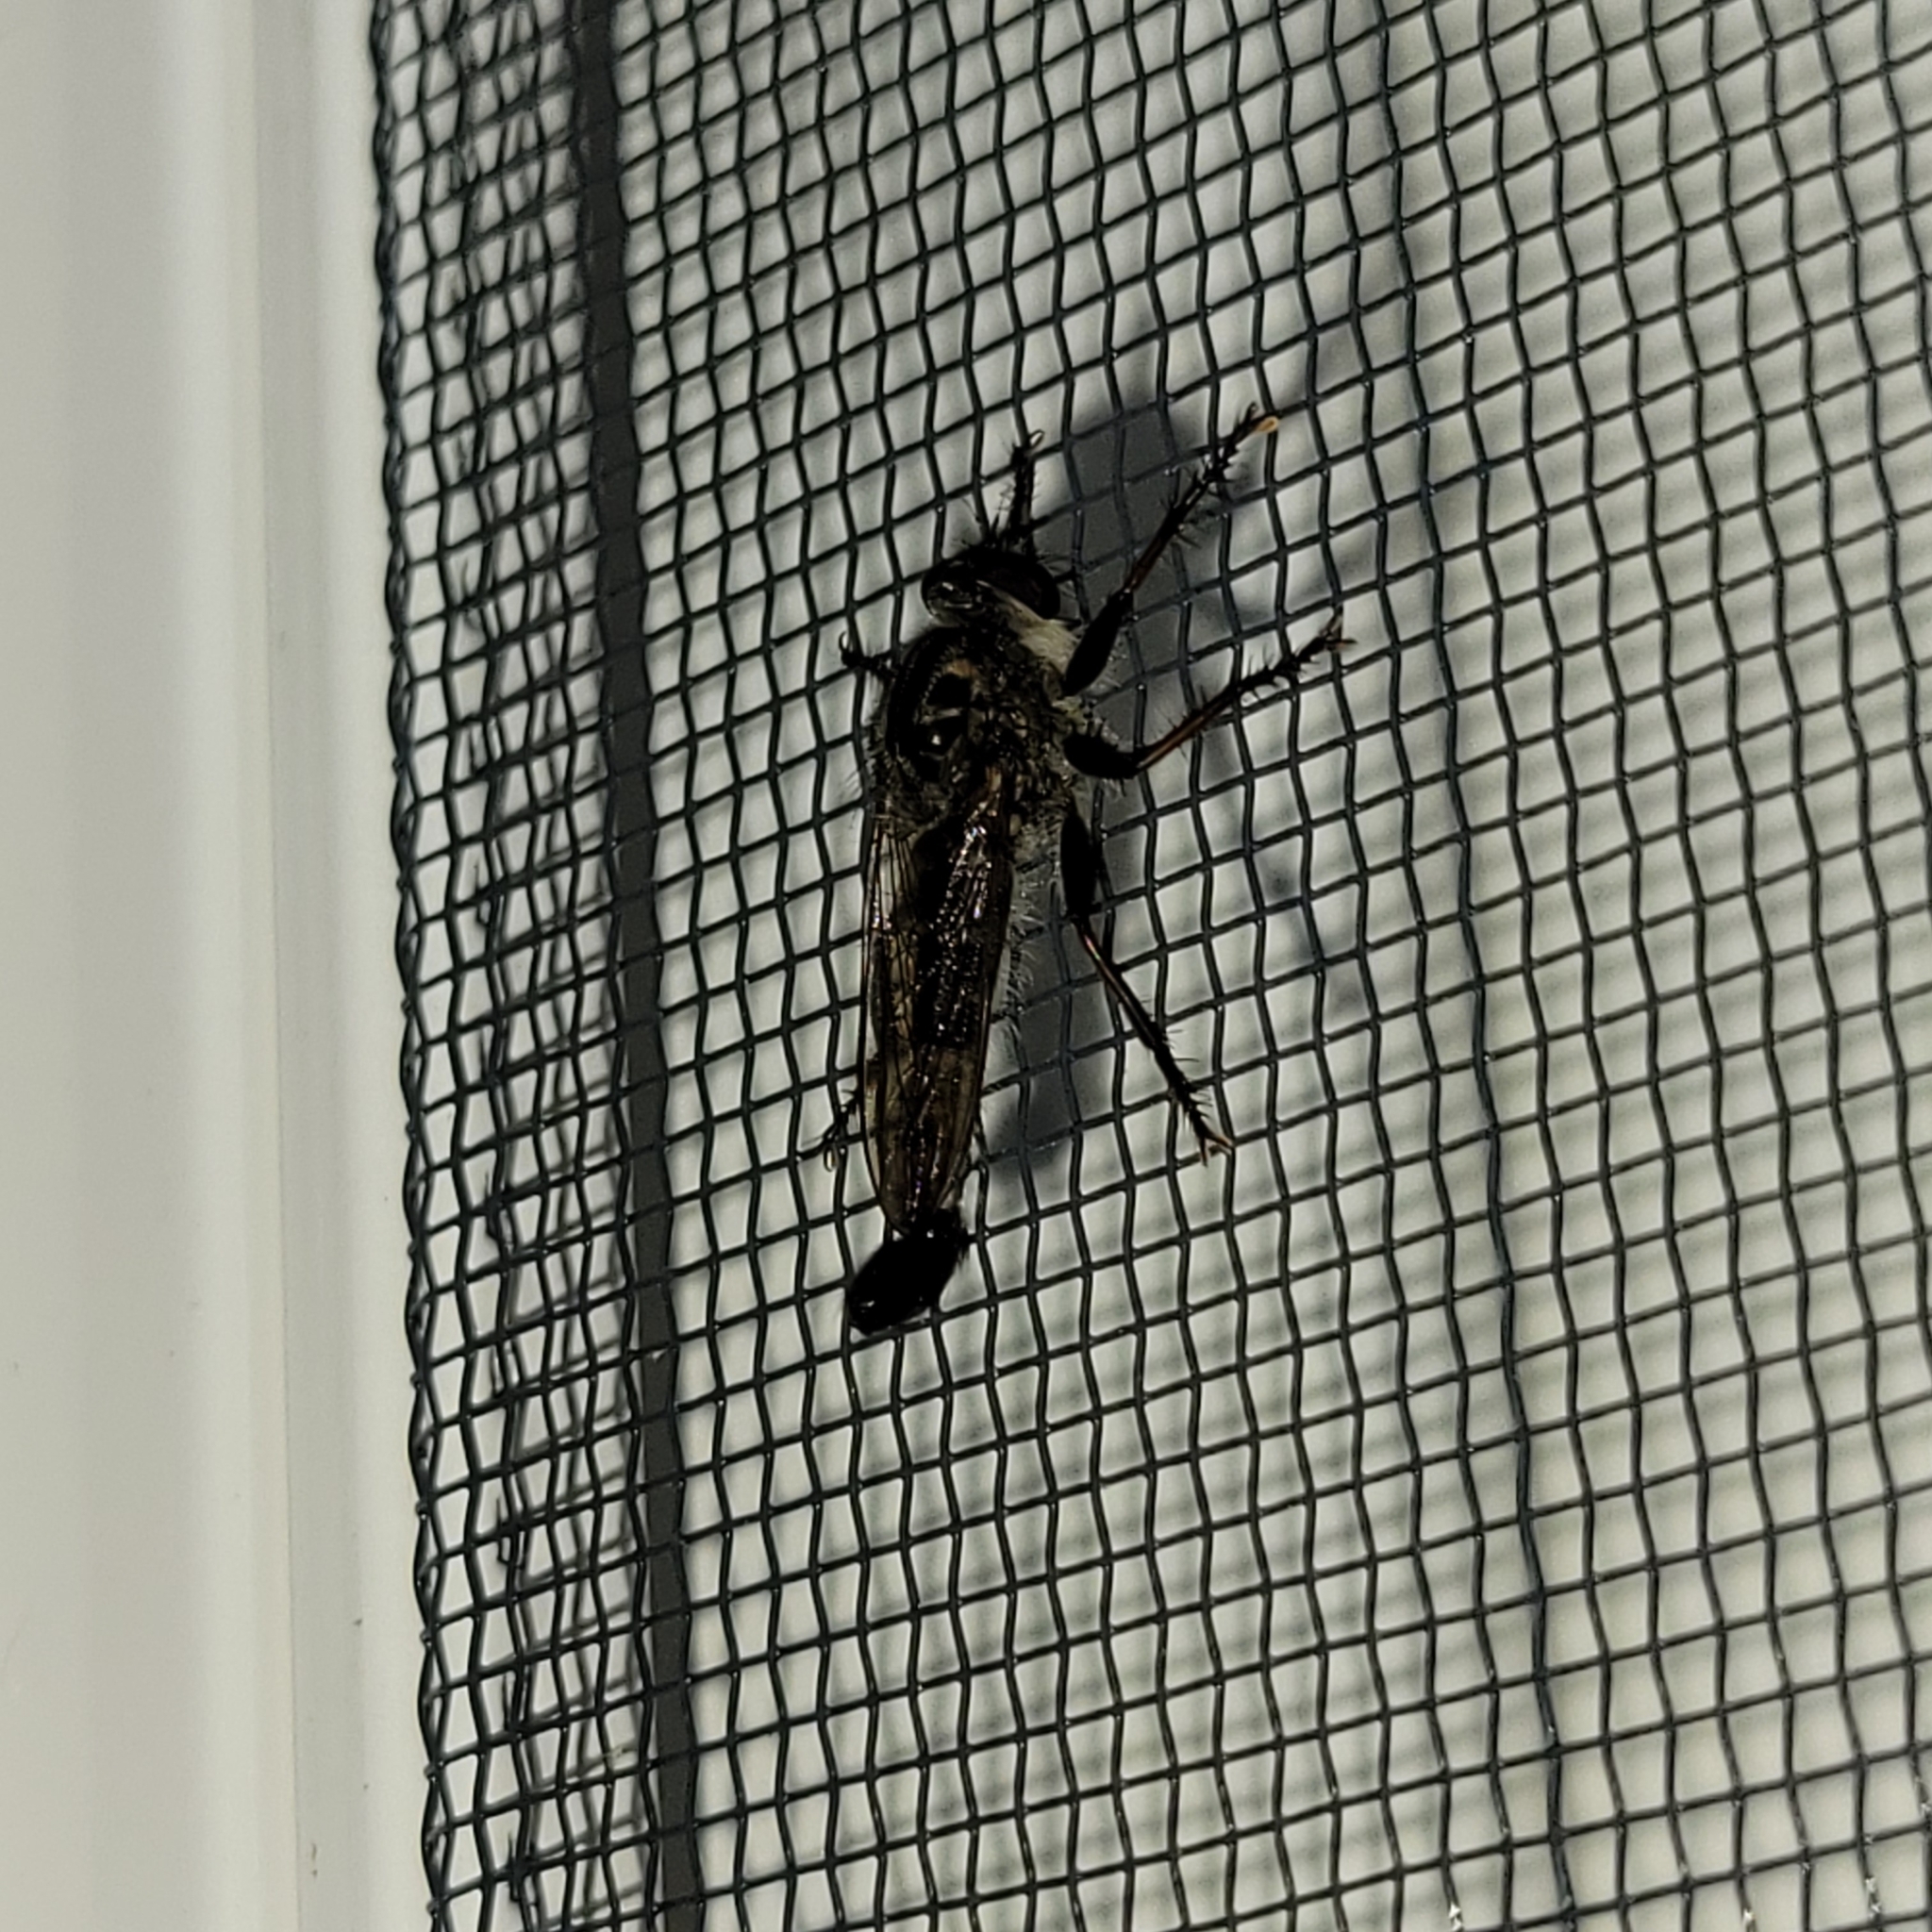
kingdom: Animalia
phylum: Arthropoda
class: Insecta
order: Diptera
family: Asilidae
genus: Efferia
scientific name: Efferia aestuans
